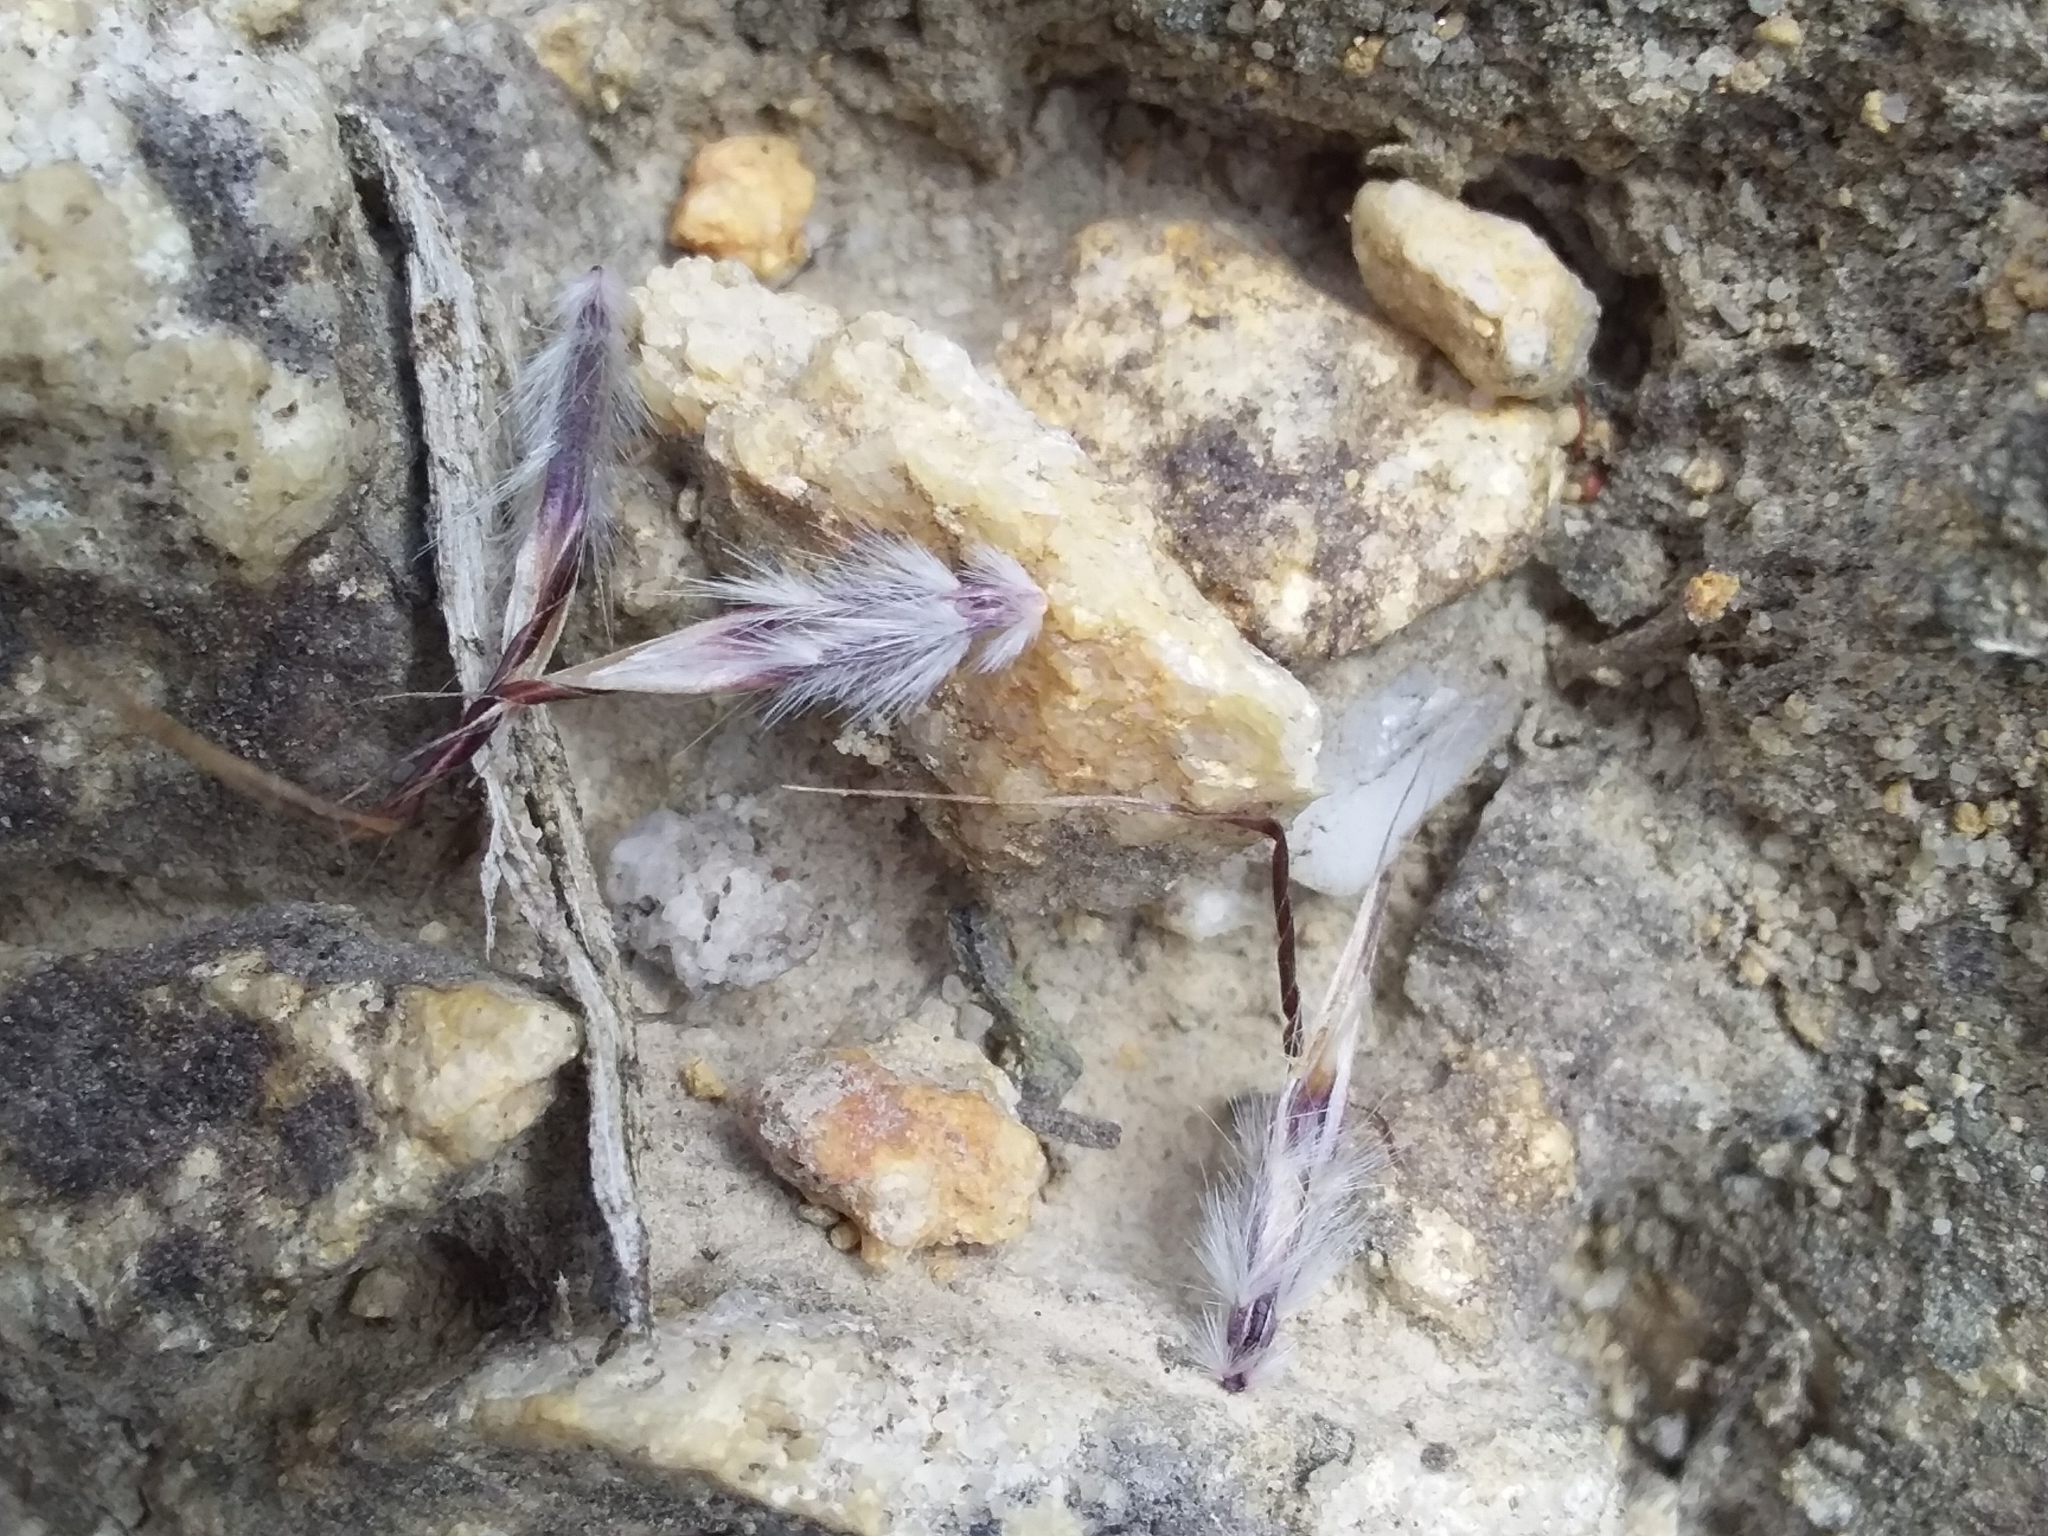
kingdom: Plantae
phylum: Tracheophyta
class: Liliopsida
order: Poales
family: Poaceae
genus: Rytidosperma
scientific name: Rytidosperma clelandii
